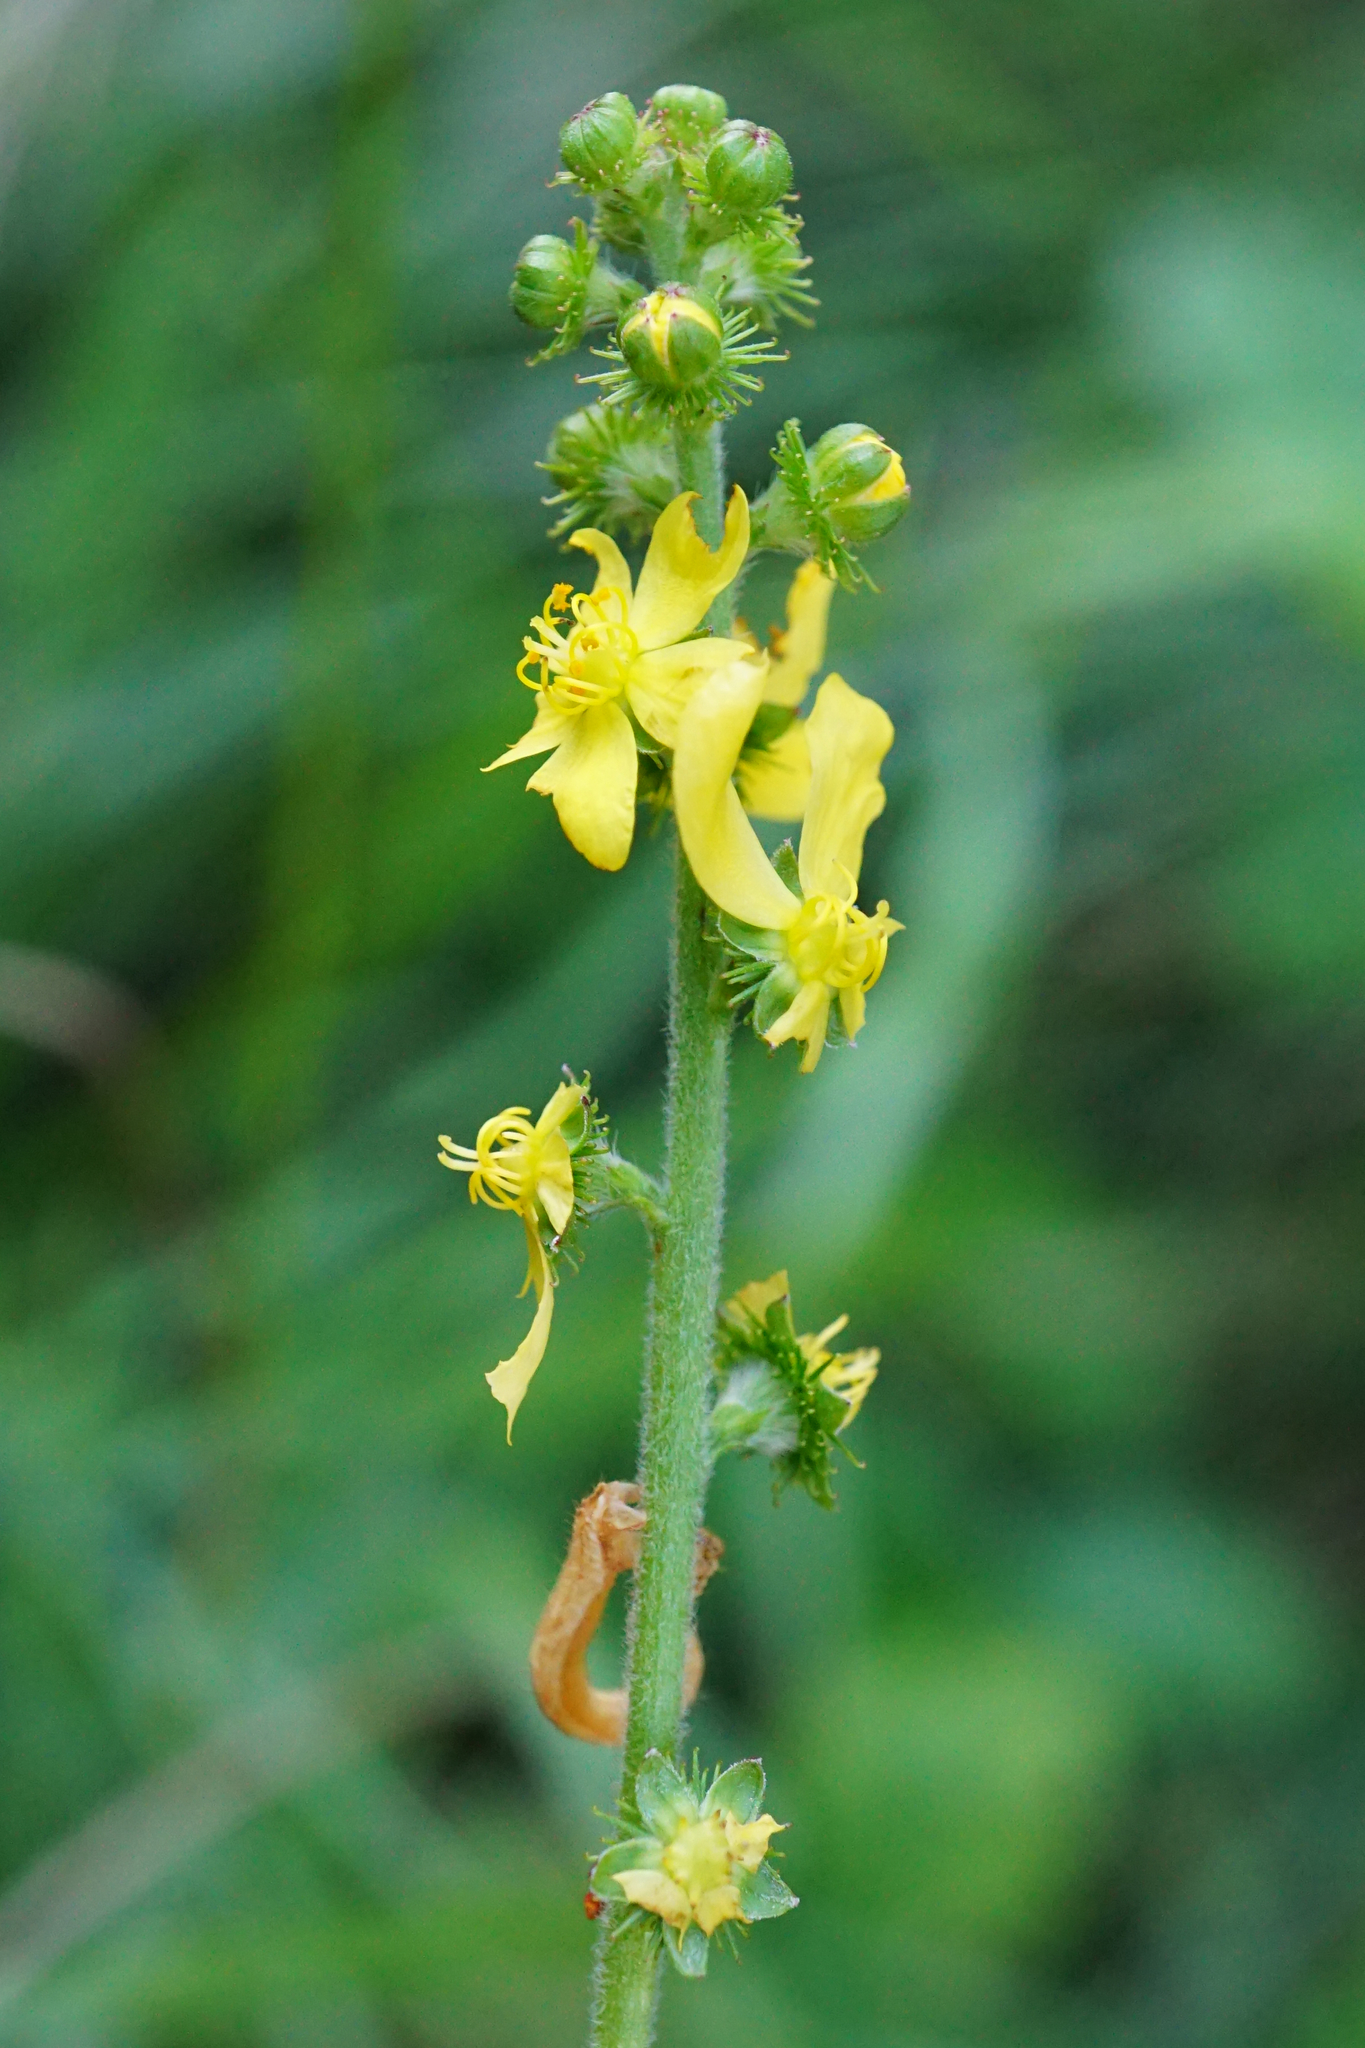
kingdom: Plantae
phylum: Tracheophyta
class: Magnoliopsida
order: Rosales
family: Rosaceae
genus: Agrimonia
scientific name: Agrimonia eupatoria
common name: Agrimony
